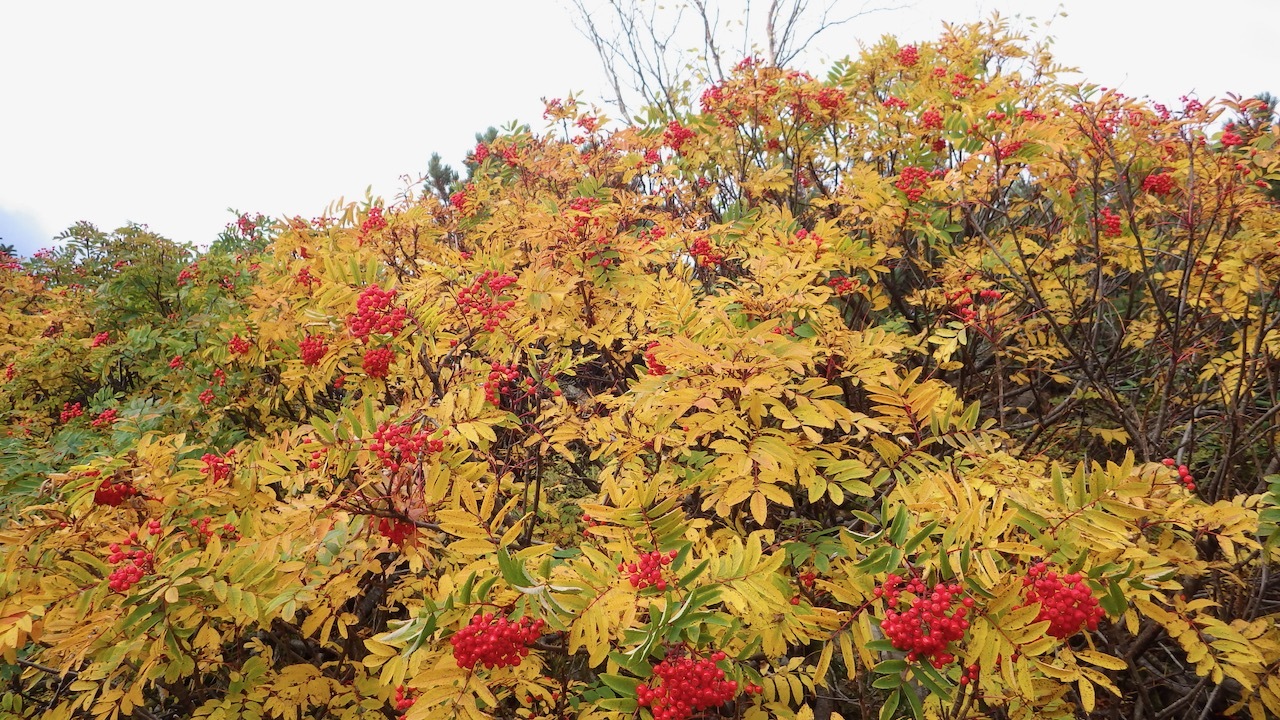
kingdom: Plantae
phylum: Tracheophyta
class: Magnoliopsida
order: Rosales
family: Rosaceae
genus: Sorbus
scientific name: Sorbus sambucifolia
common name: Siberian mountain-ash
